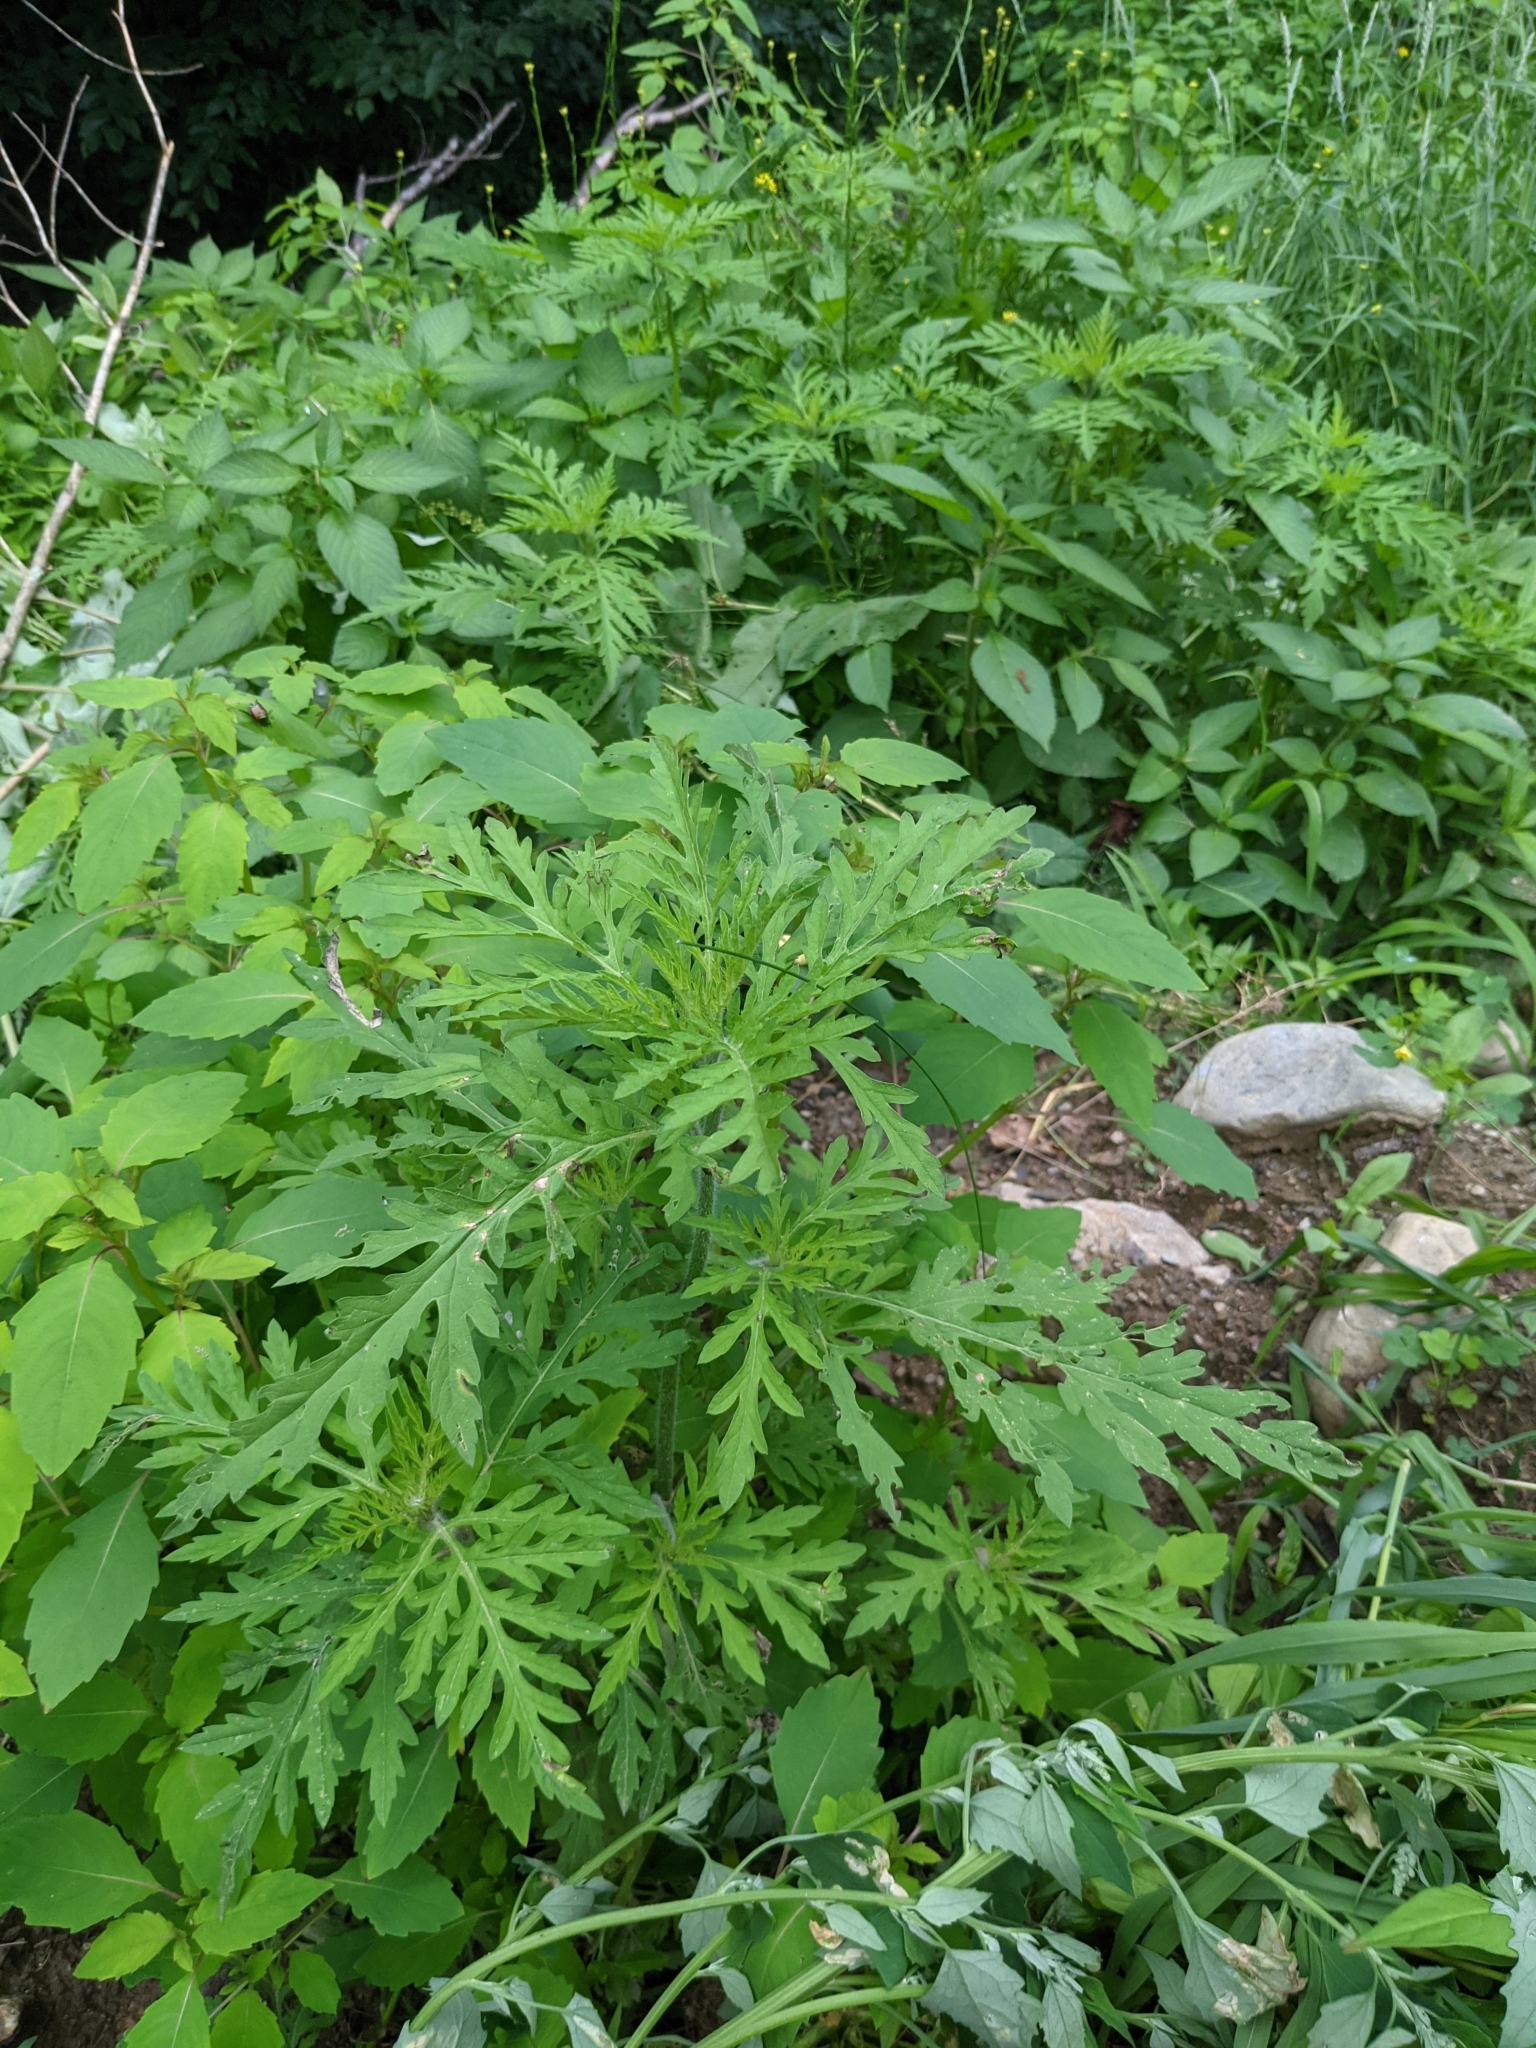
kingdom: Plantae
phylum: Tracheophyta
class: Magnoliopsida
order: Asterales
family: Asteraceae
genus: Ambrosia
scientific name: Ambrosia artemisiifolia
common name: Annual ragweed
